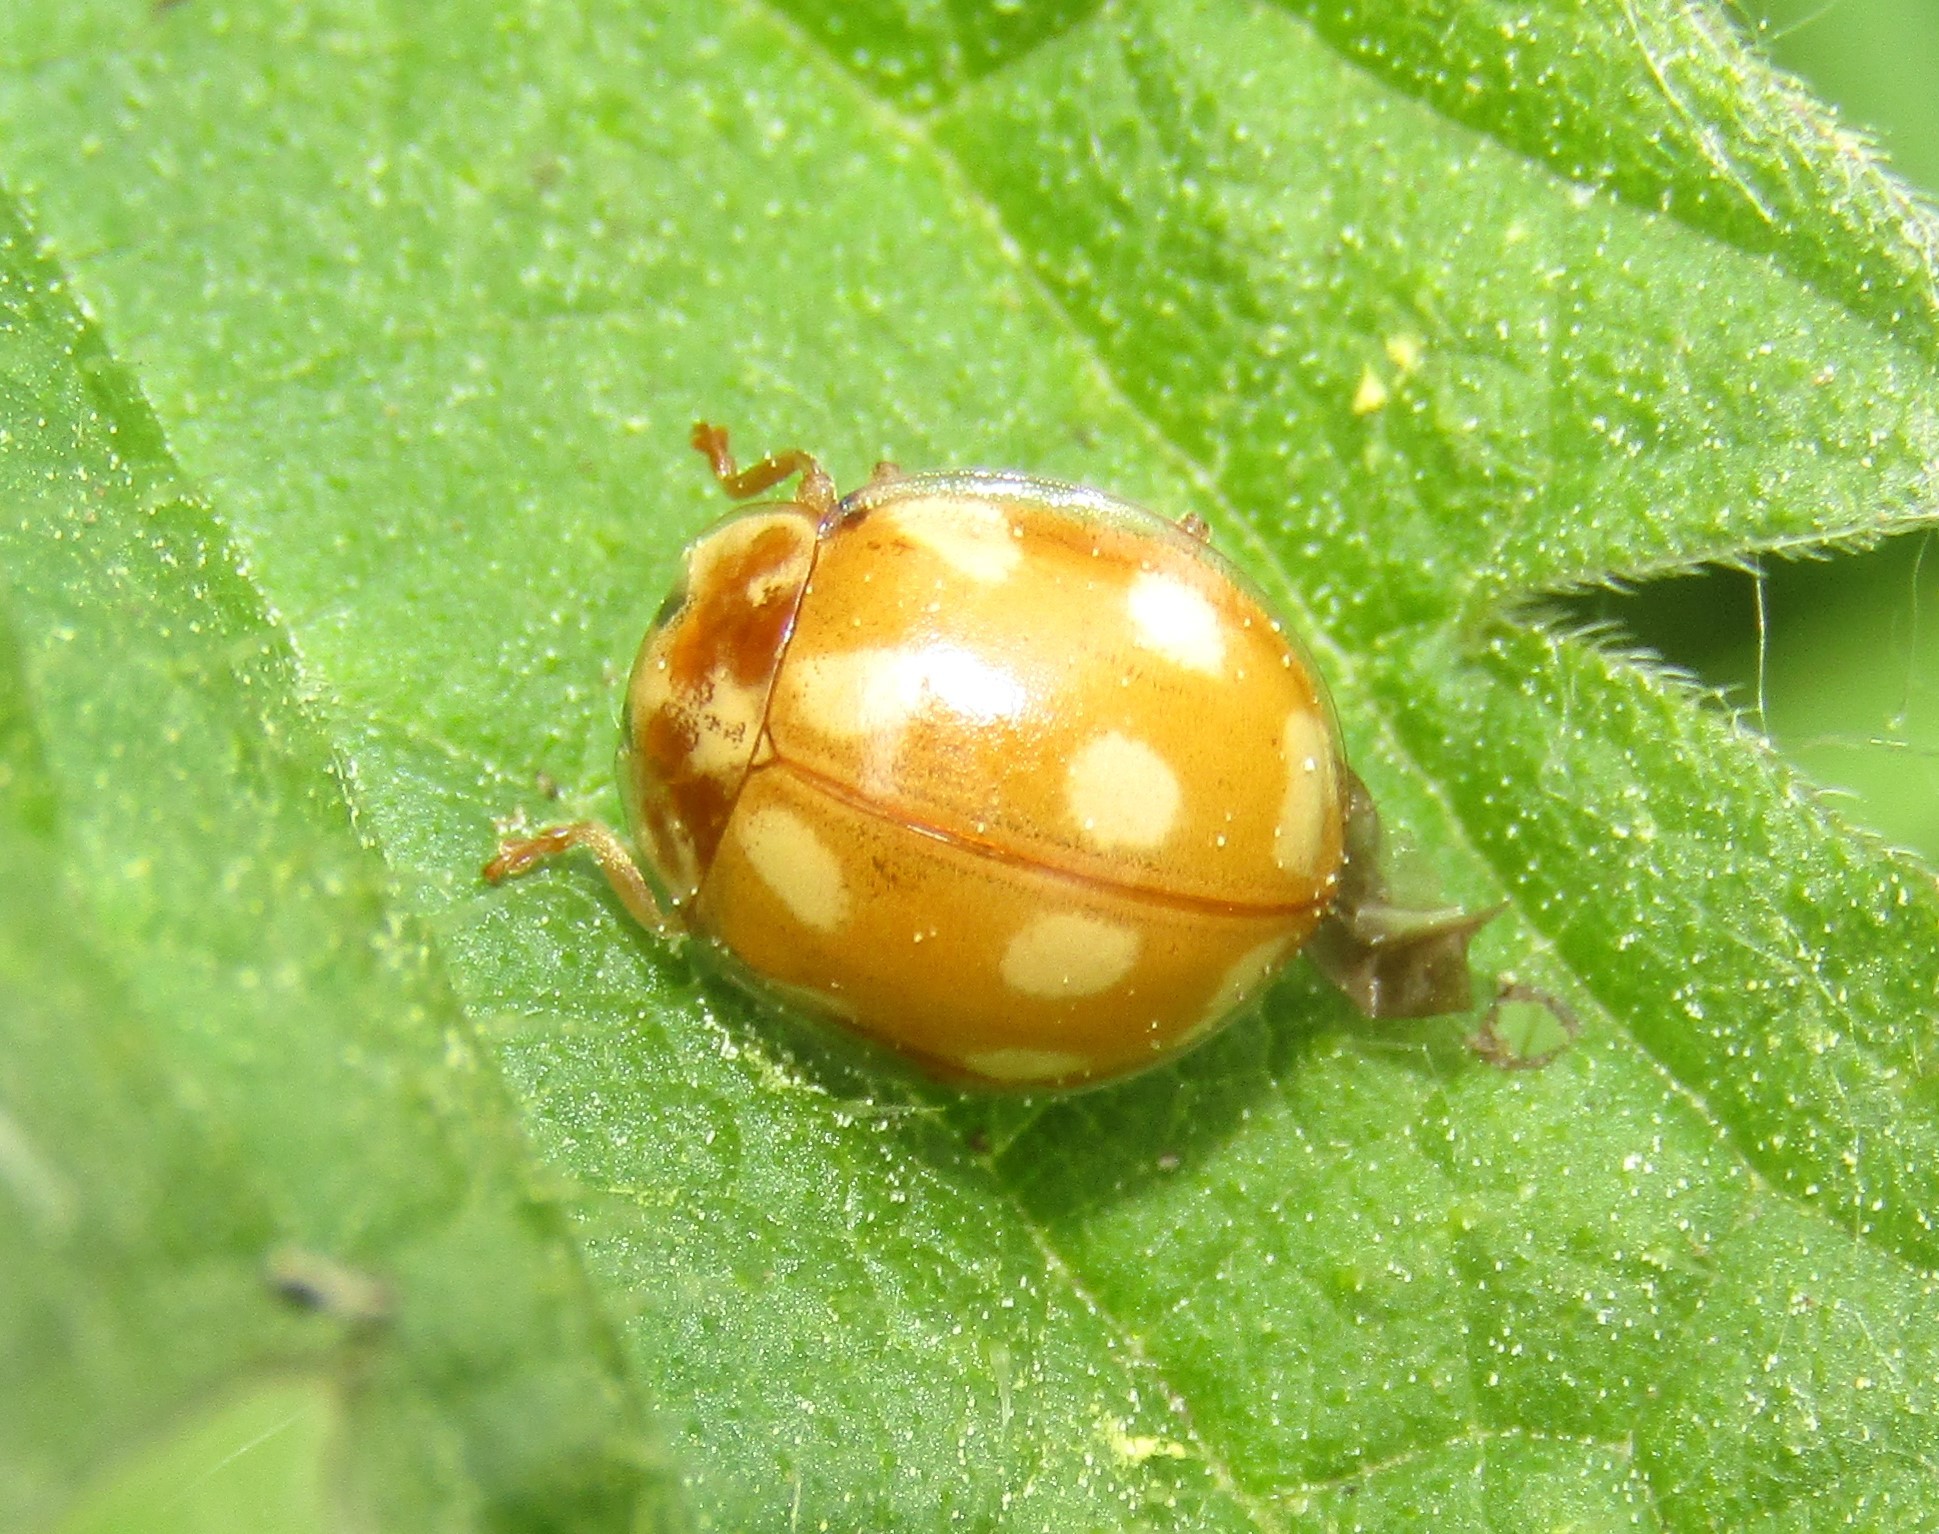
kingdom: Animalia
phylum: Arthropoda
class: Insecta
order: Coleoptera
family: Coccinellidae
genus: Calvia
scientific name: Calvia decemguttata
